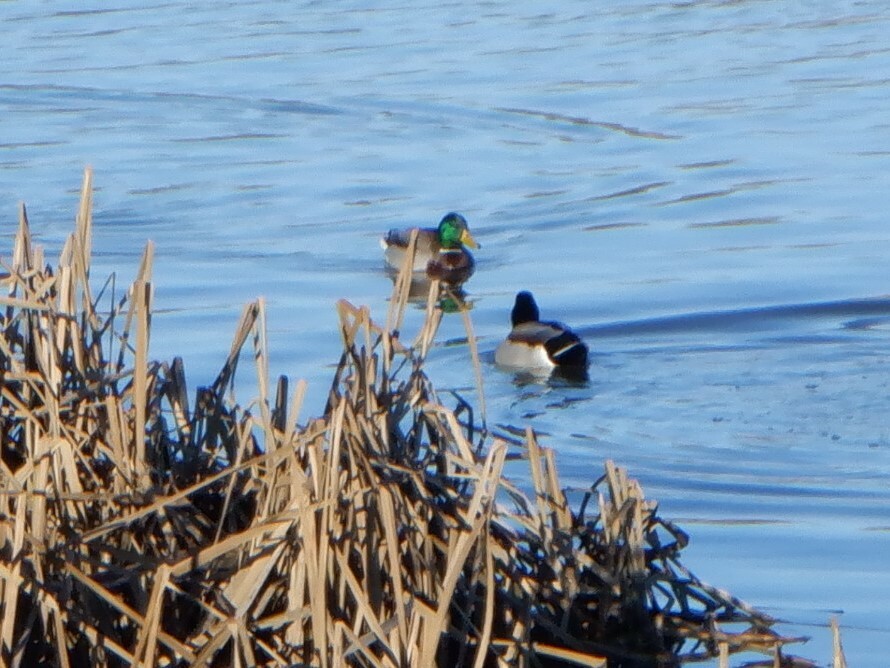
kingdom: Animalia
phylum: Chordata
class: Aves
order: Anseriformes
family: Anatidae
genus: Anas
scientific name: Anas platyrhynchos
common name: Mallard
